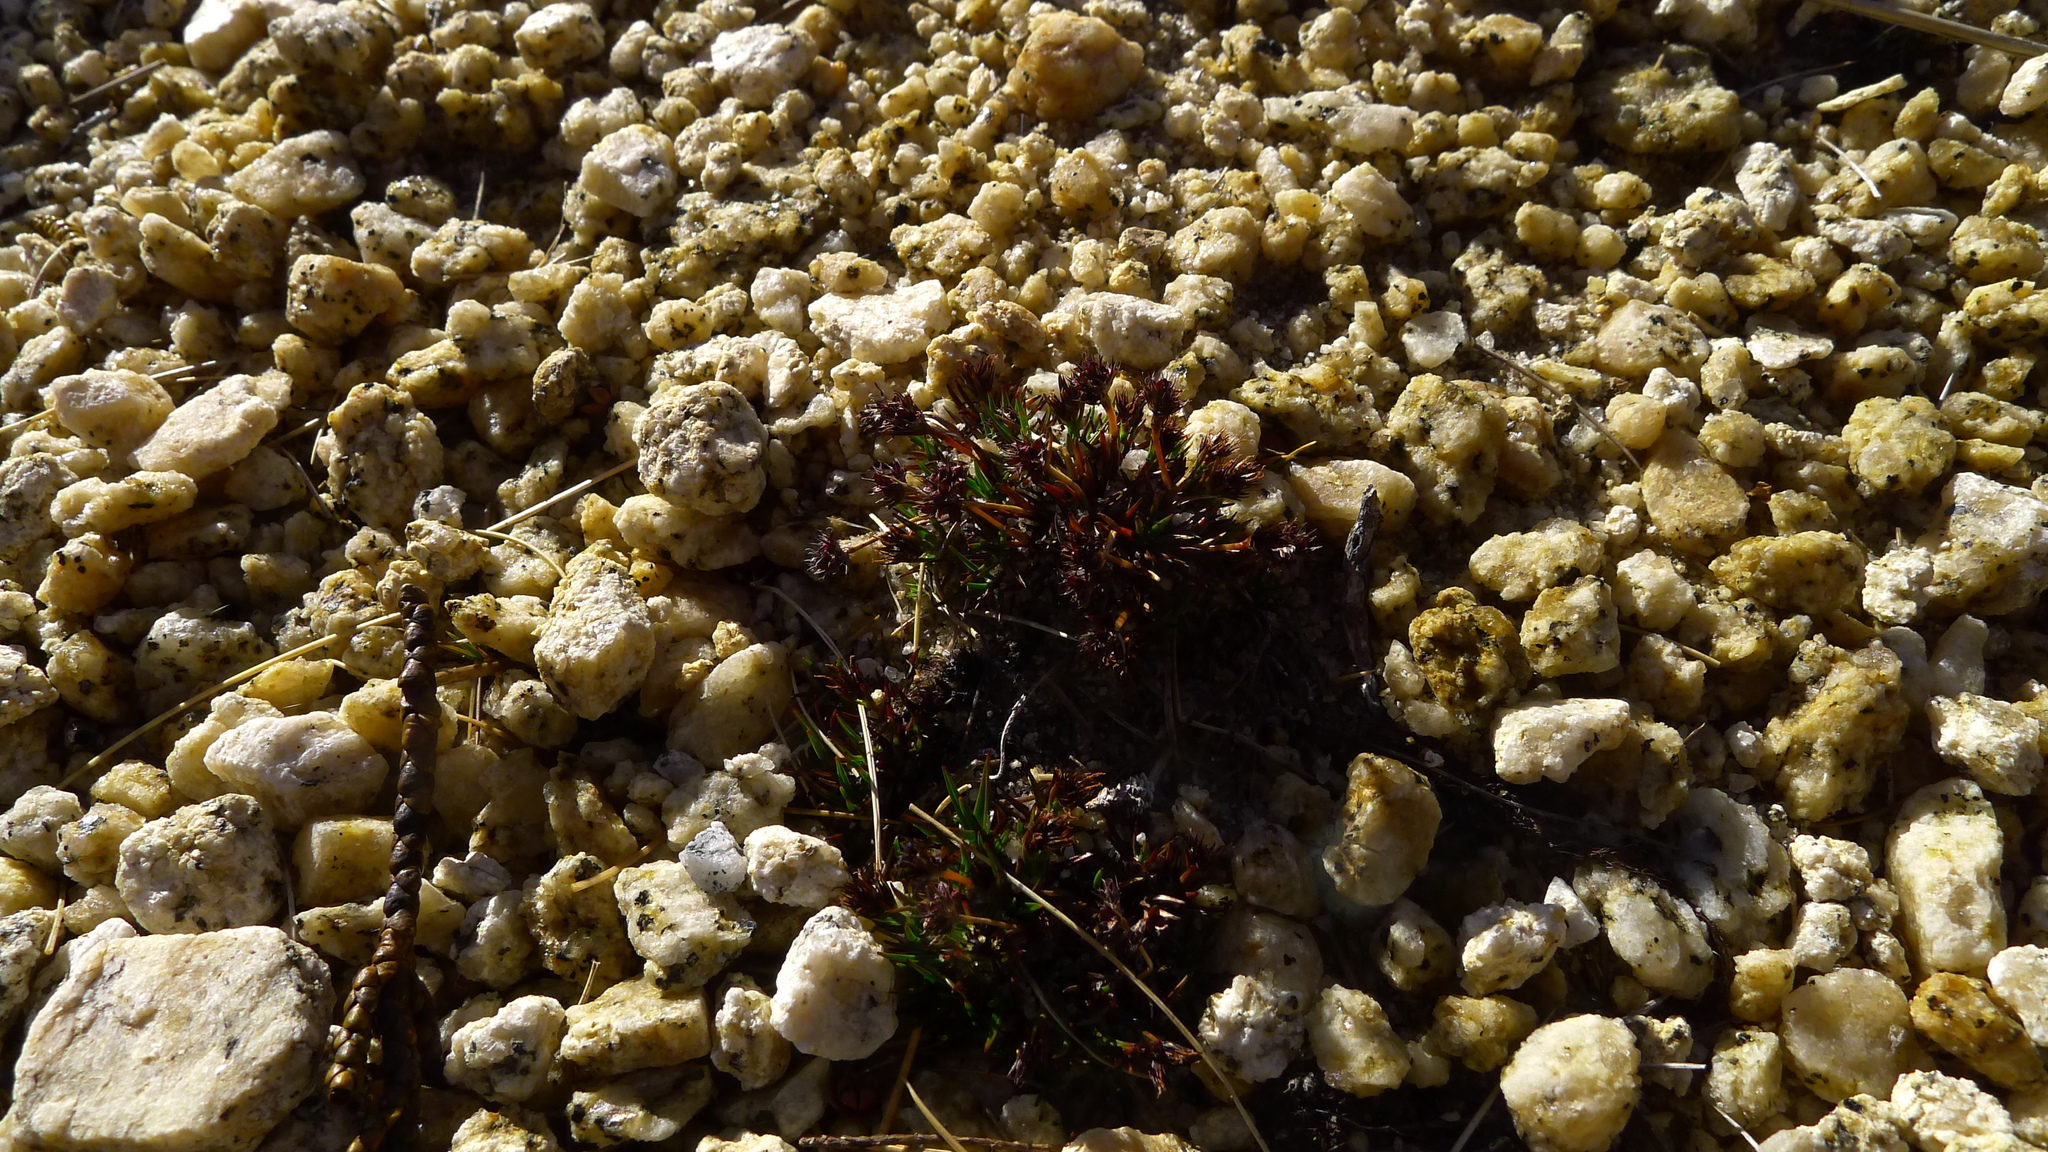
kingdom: Plantae
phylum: Tracheophyta
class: Liliopsida
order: Poales
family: Juncaceae
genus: Luzula
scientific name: Luzula pumila
